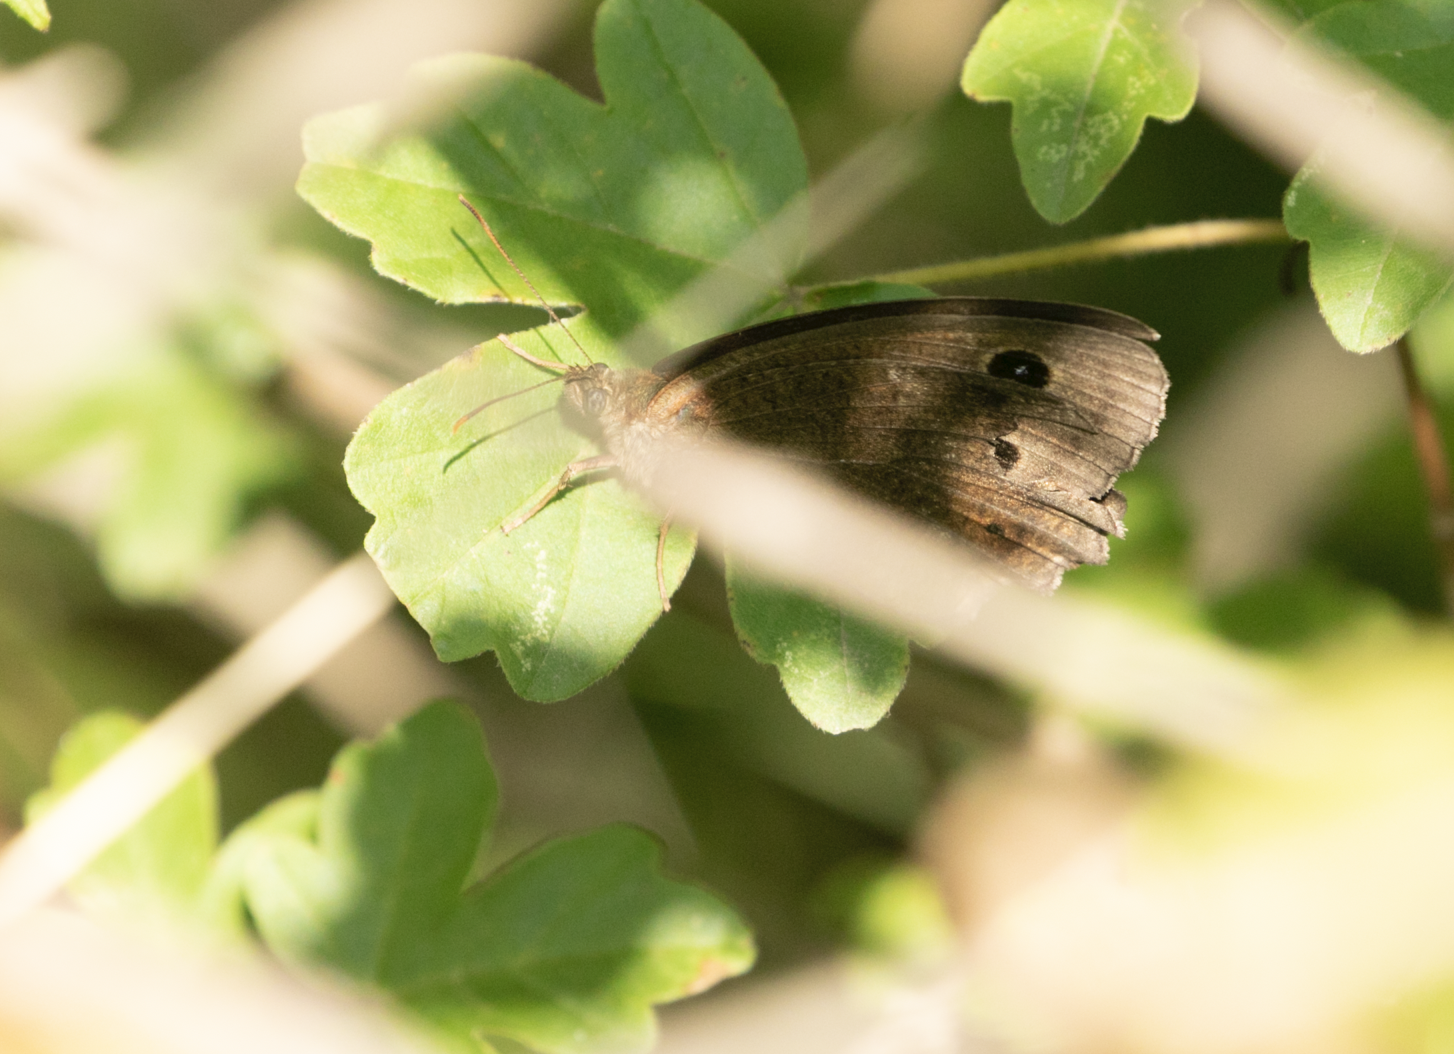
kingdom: Animalia
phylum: Arthropoda
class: Insecta
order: Lepidoptera
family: Nymphalidae
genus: Minois
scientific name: Minois dryas
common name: Dryad
